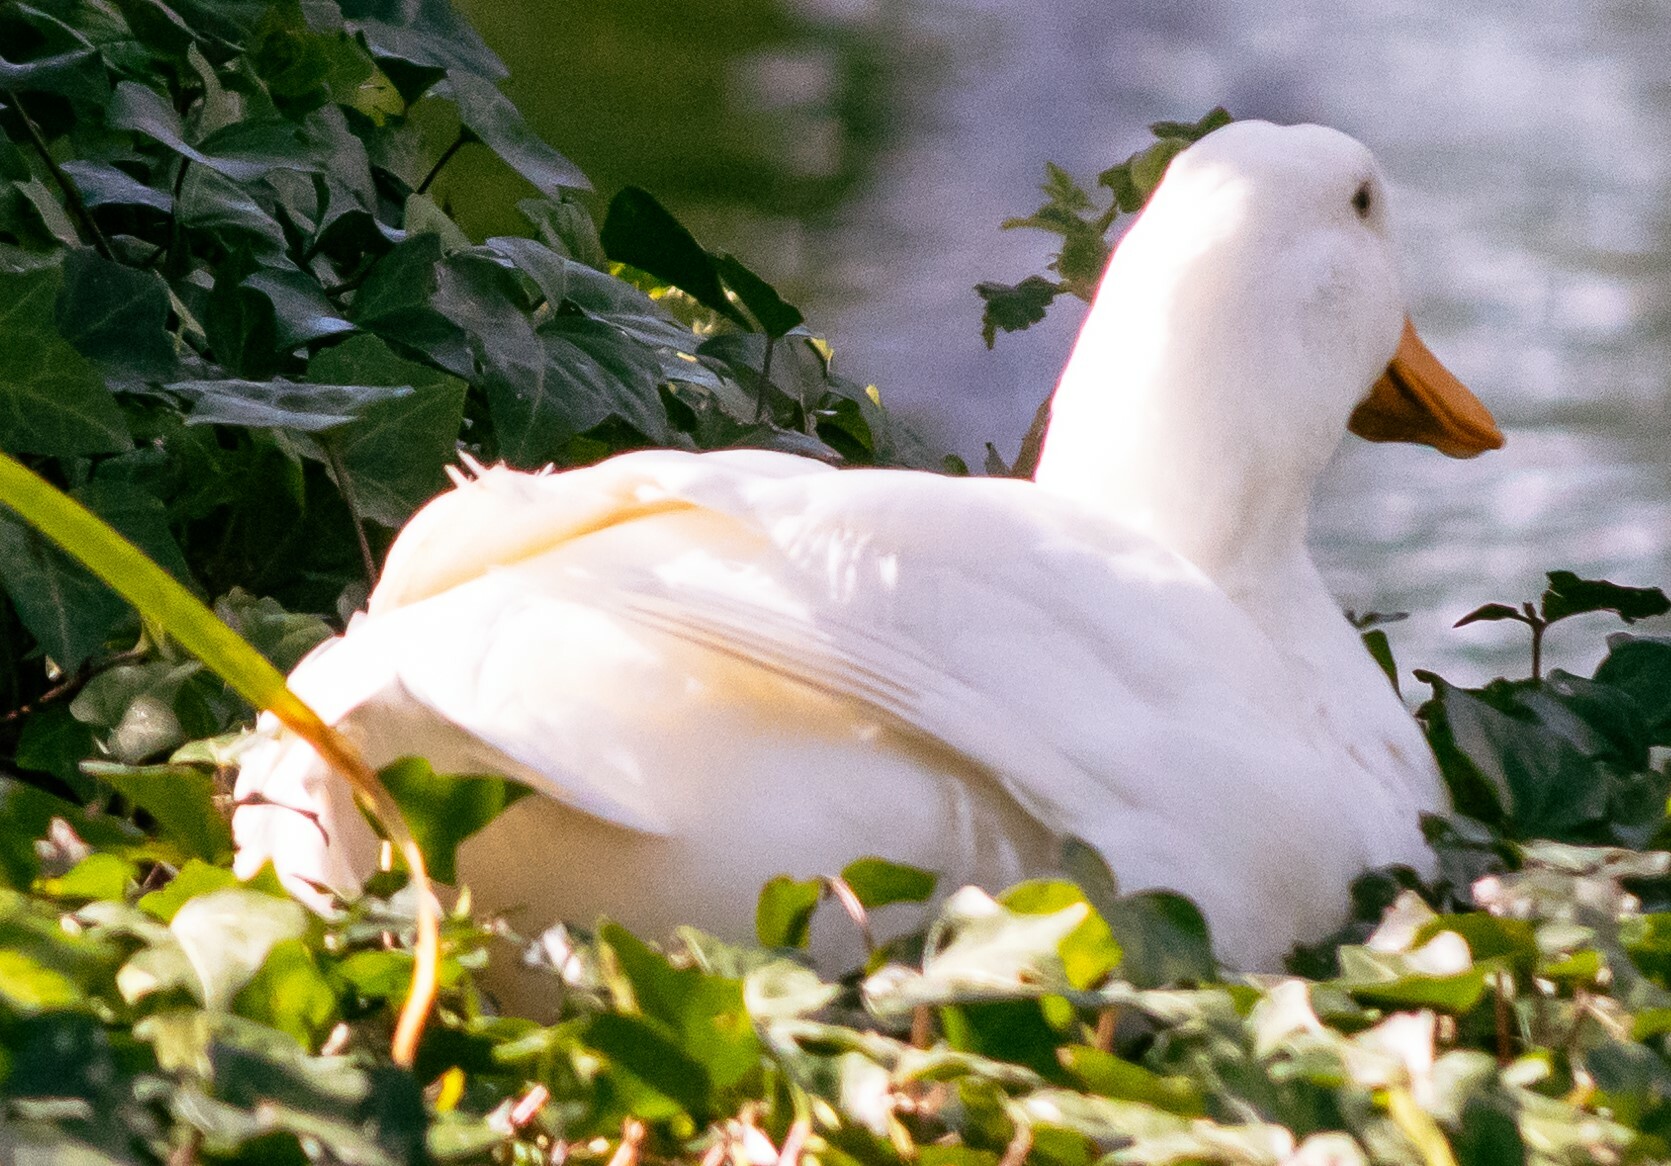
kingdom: Animalia
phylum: Chordata
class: Aves
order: Anseriformes
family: Anatidae
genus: Anas
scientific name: Anas platyrhynchos
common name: Mallard
